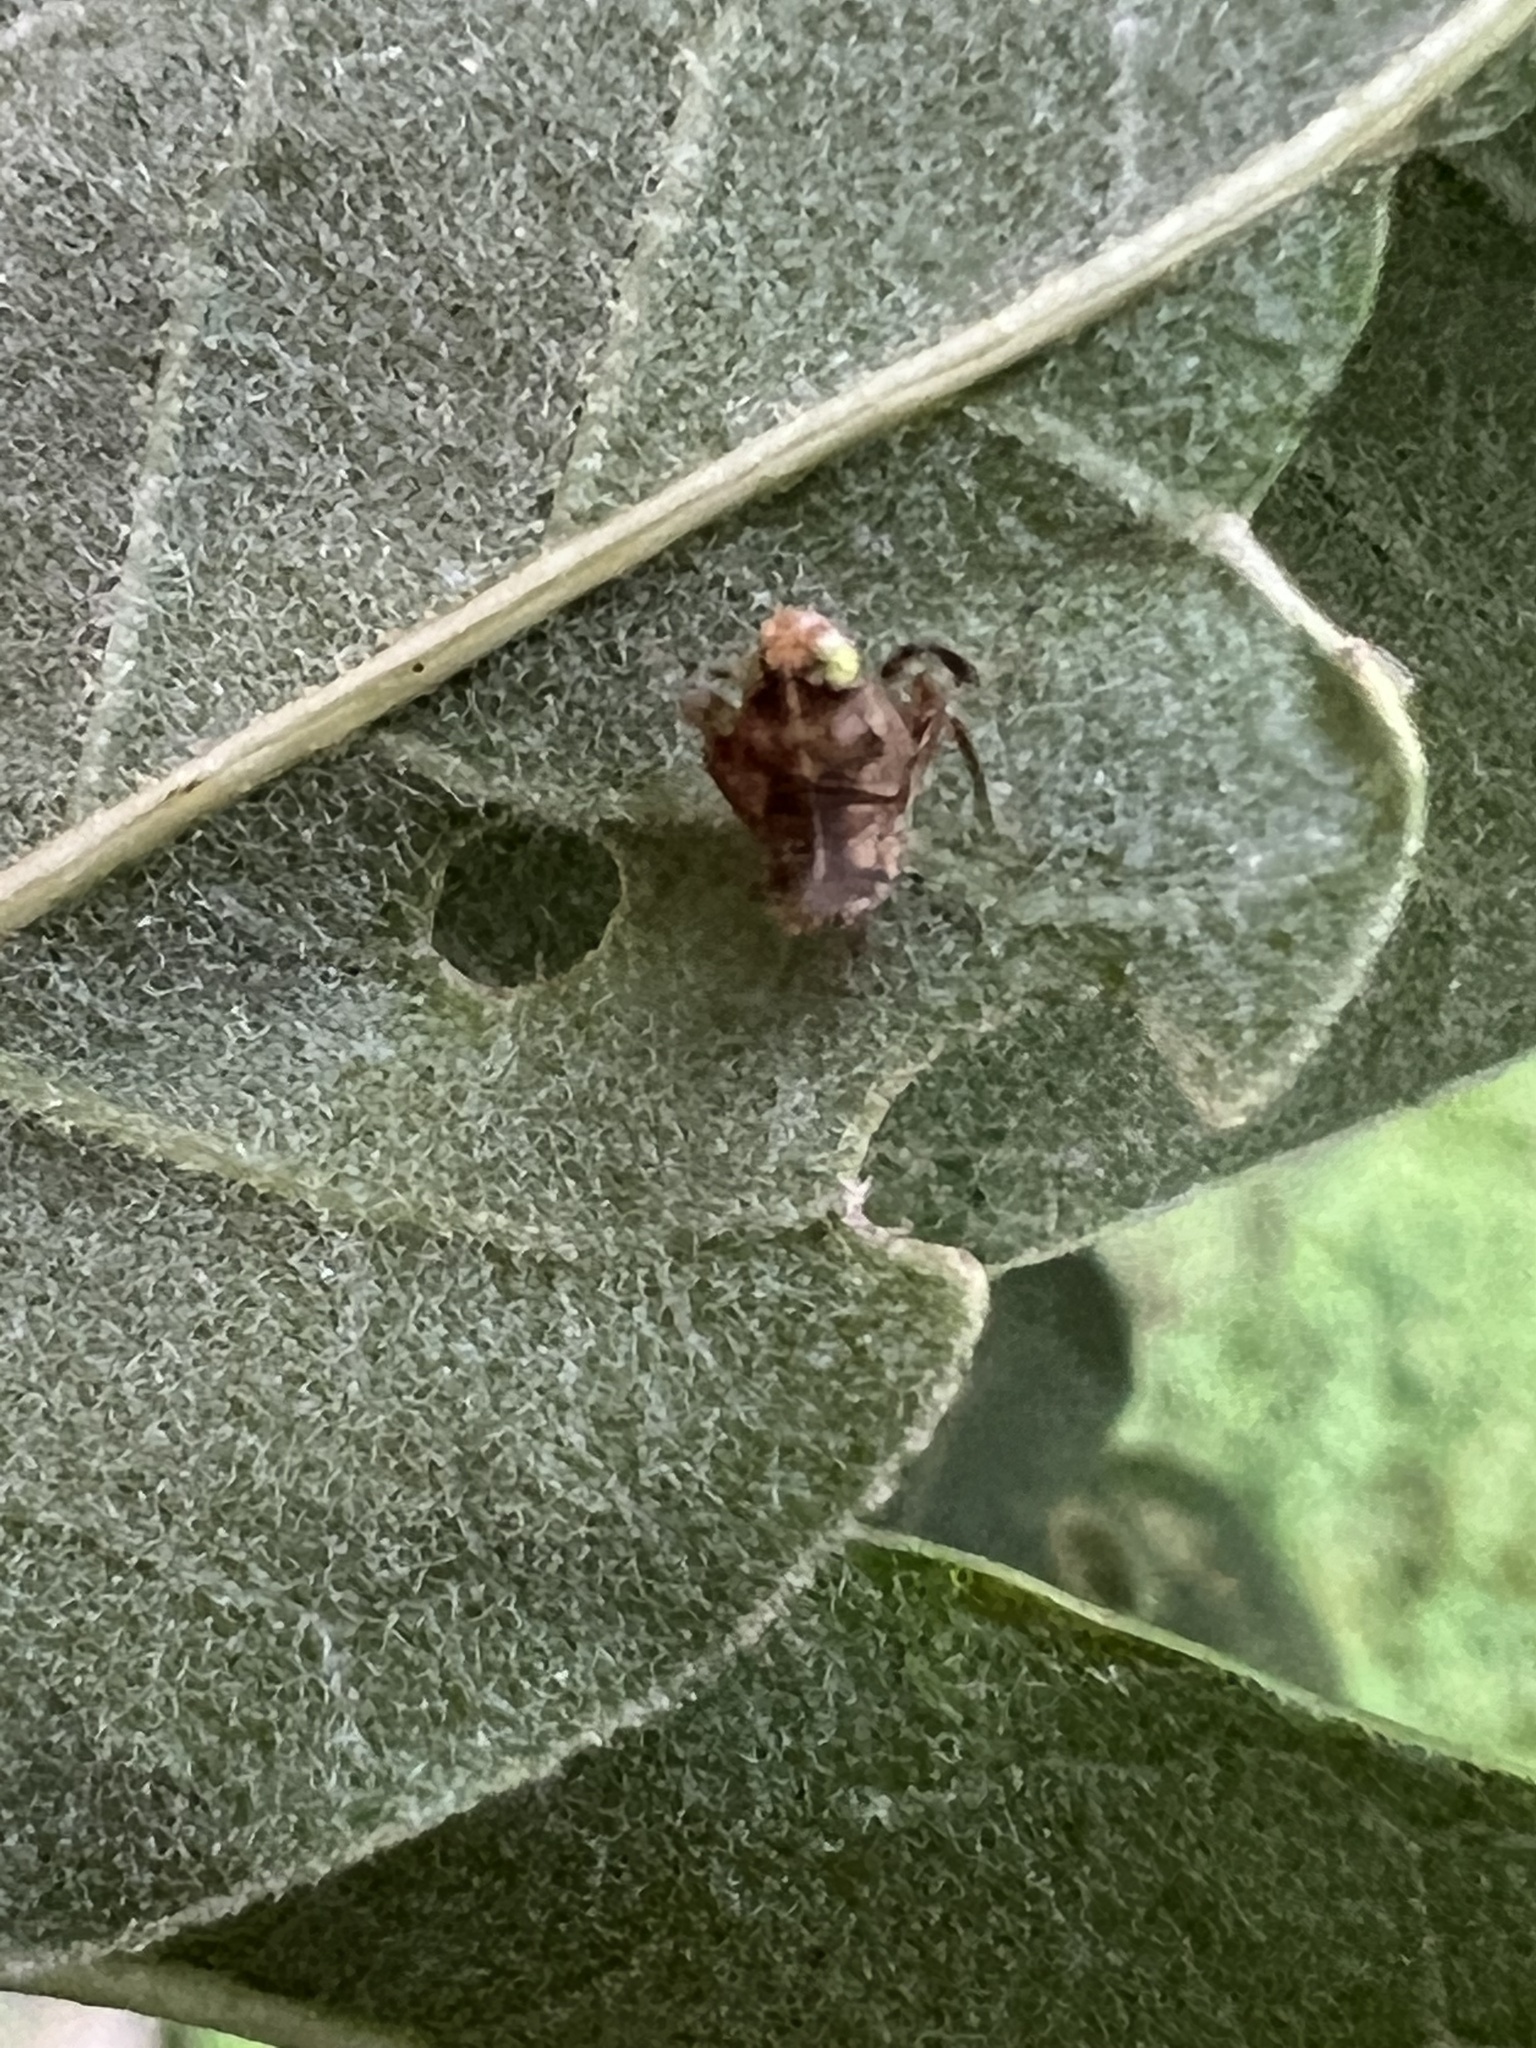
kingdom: Animalia
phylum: Arthropoda
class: Insecta
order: Hemiptera
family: Cicadellidae
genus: Jikradia
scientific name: Jikradia olitoria
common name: Coppery leafhopper
